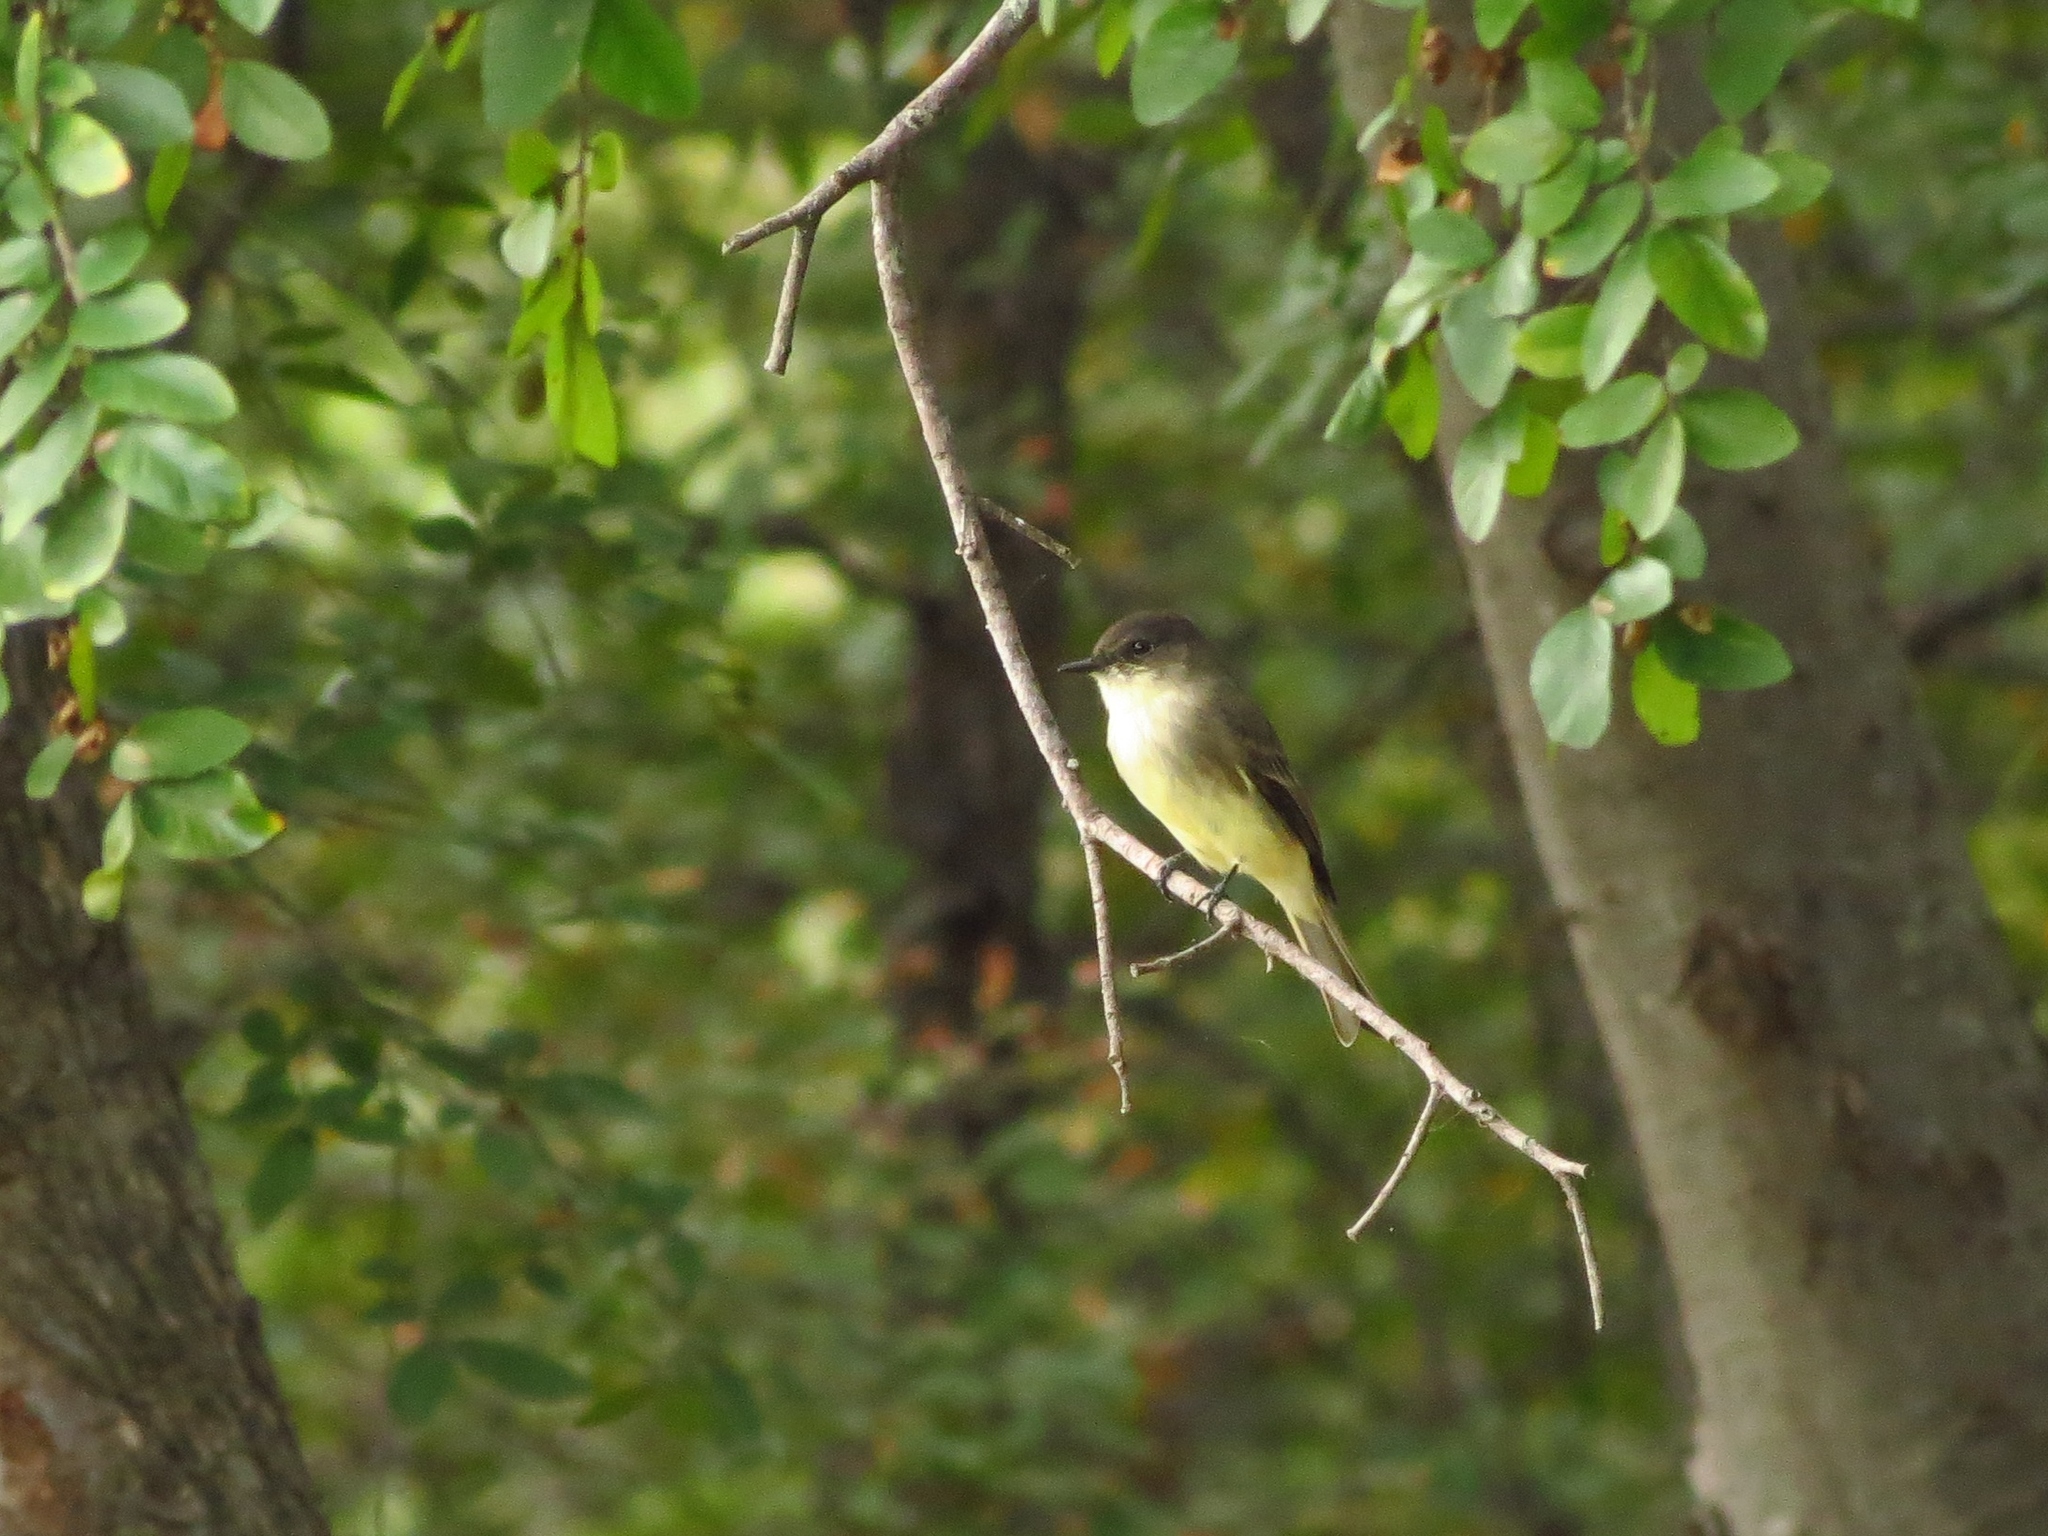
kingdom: Animalia
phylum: Chordata
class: Aves
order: Passeriformes
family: Tyrannidae
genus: Sayornis
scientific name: Sayornis phoebe
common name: Eastern phoebe
